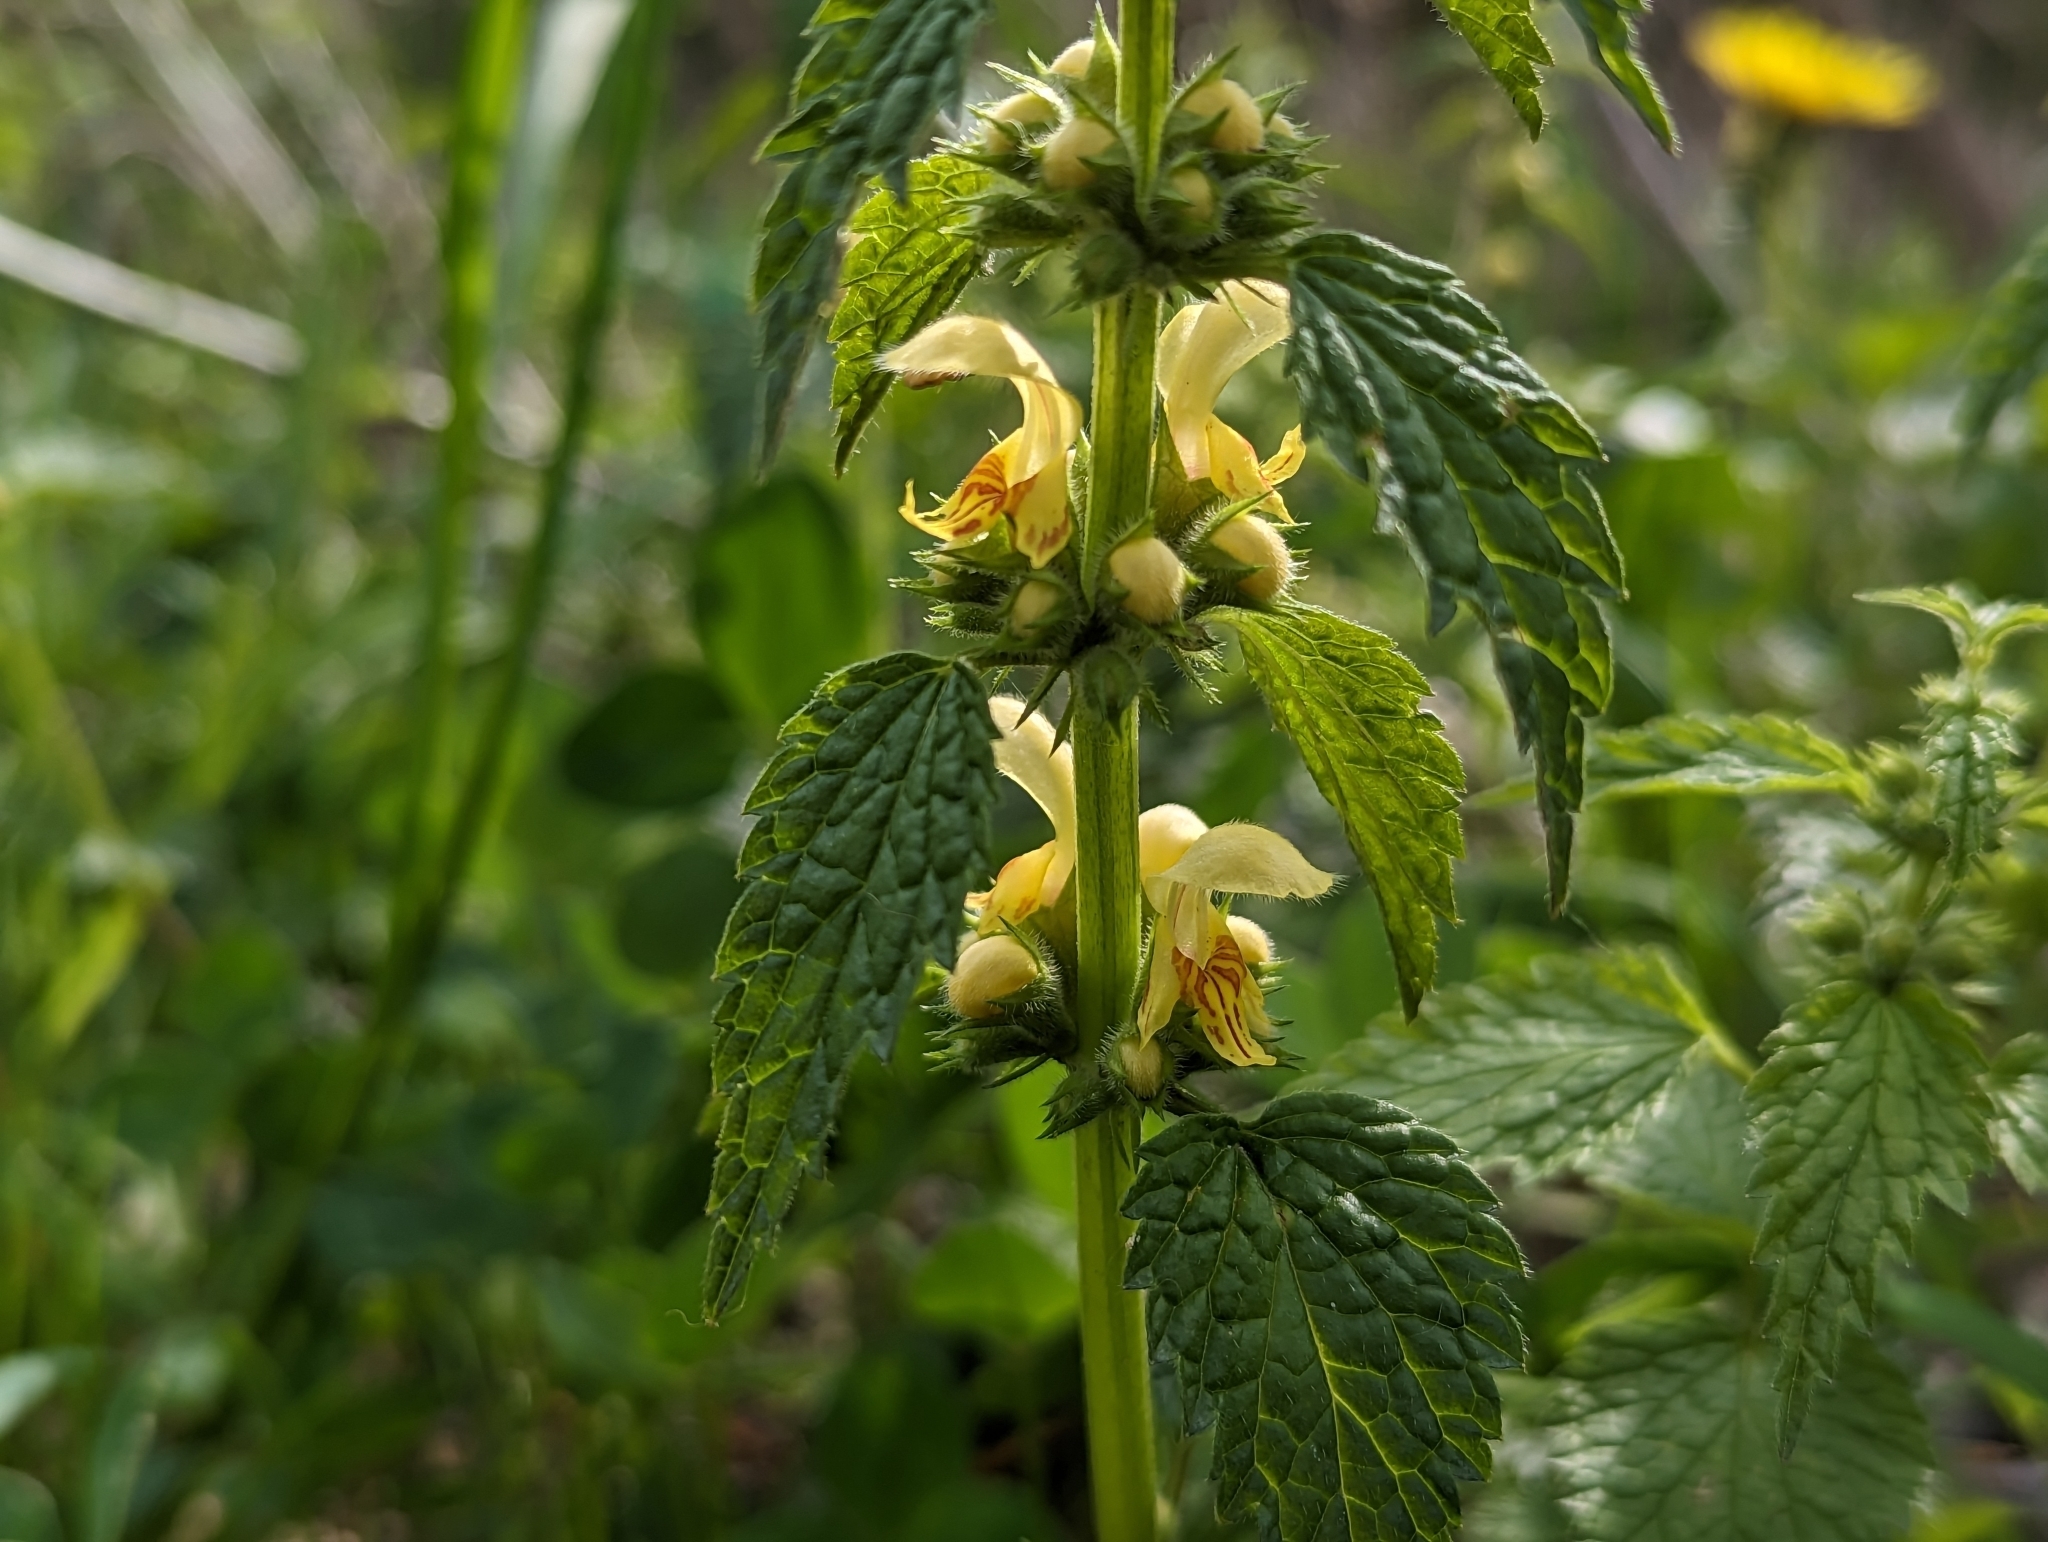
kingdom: Plantae
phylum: Tracheophyta
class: Magnoliopsida
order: Lamiales
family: Lamiaceae
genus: Lamium
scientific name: Lamium galeobdolon
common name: Yellow archangel
